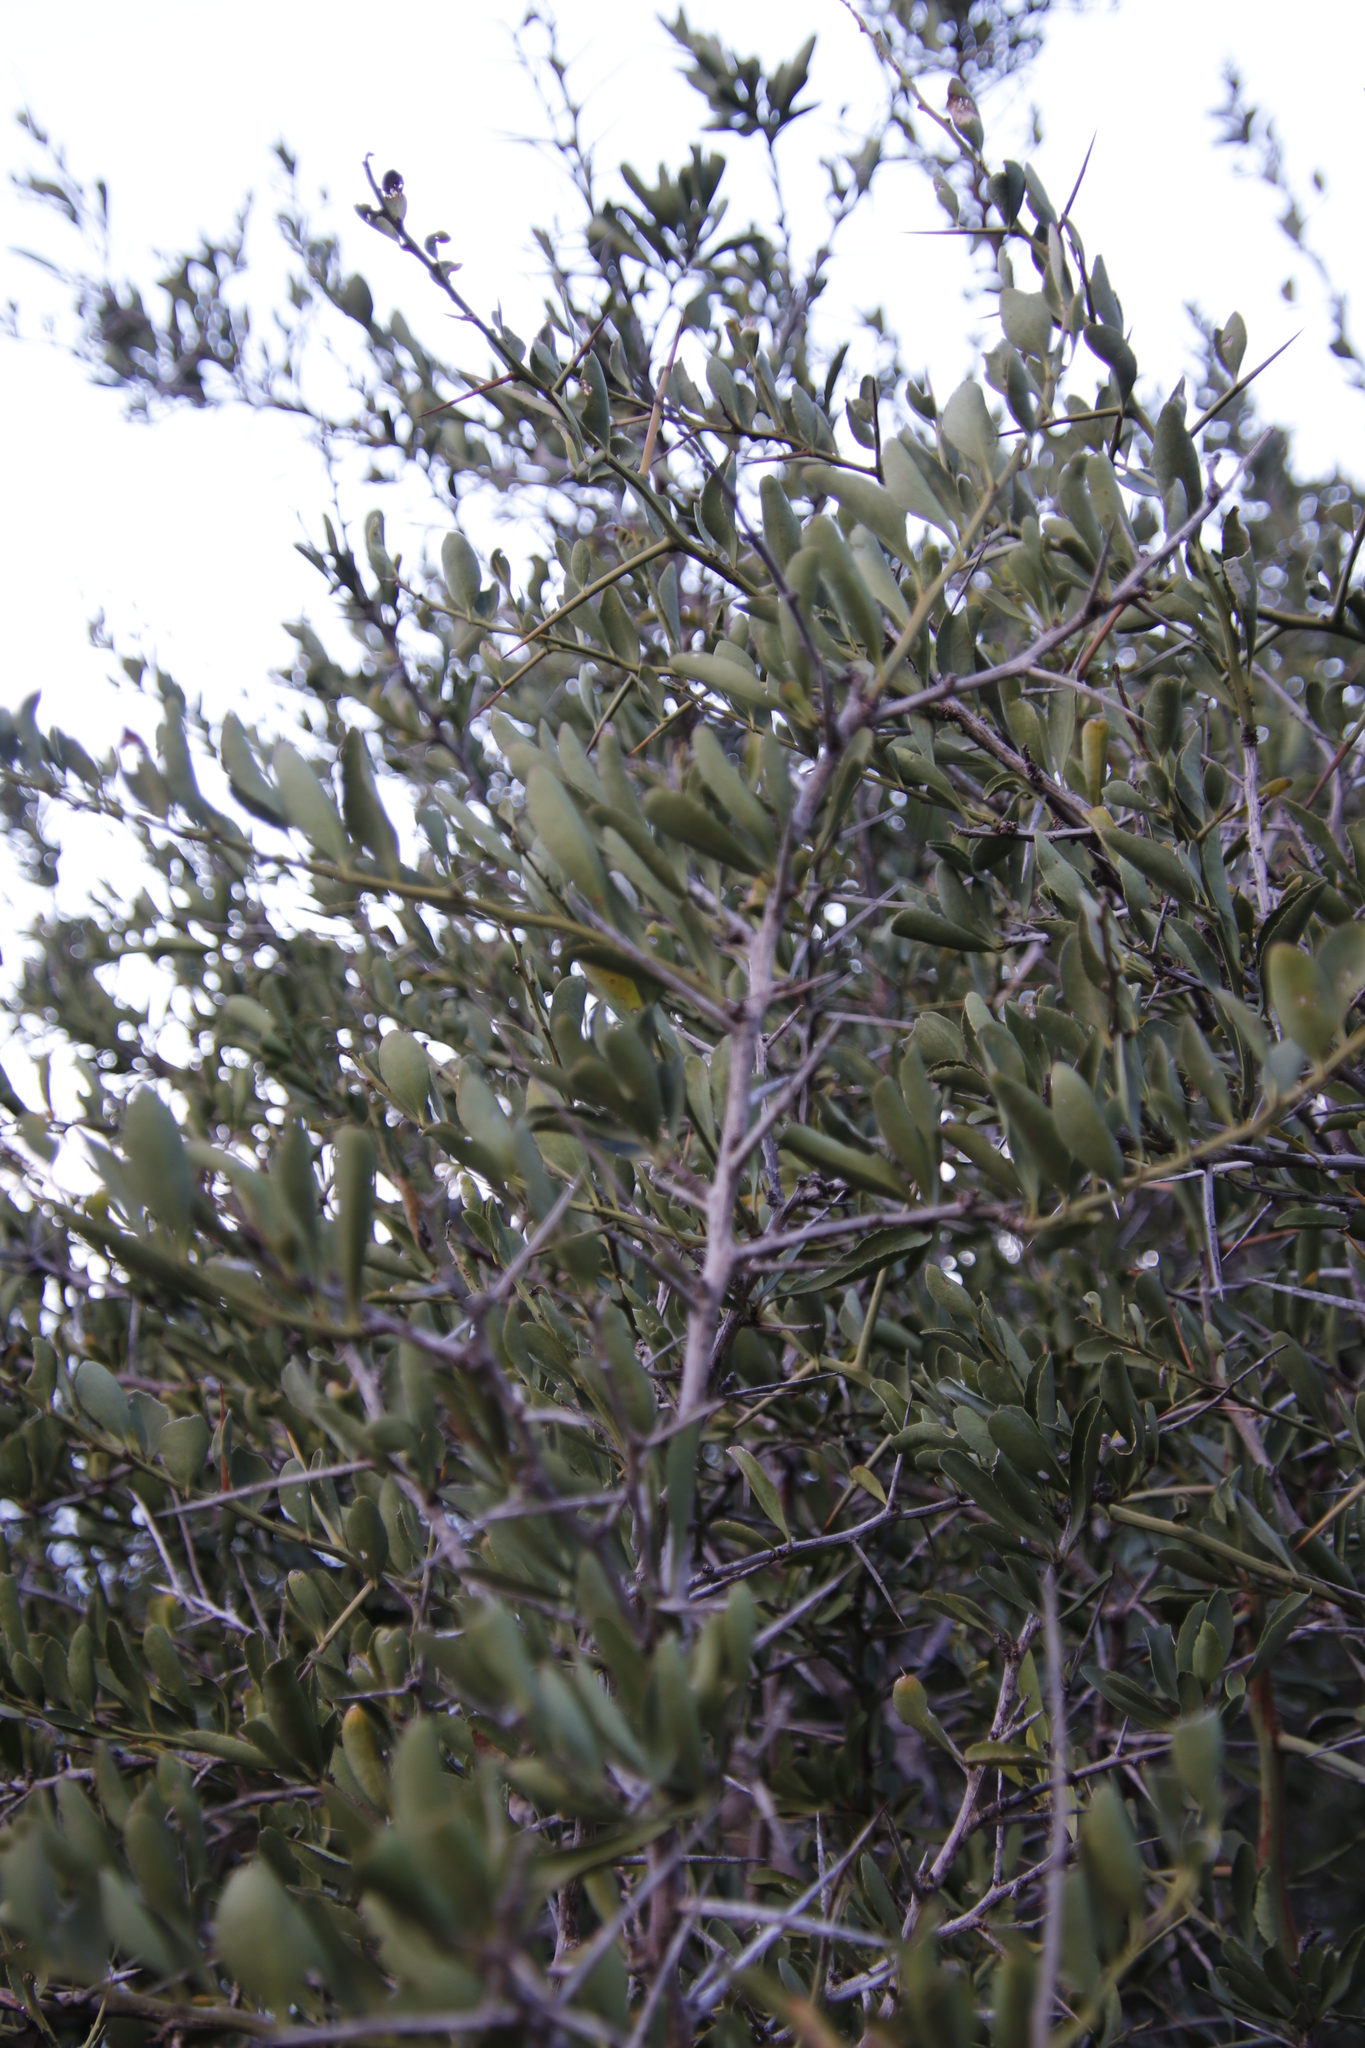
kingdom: Plantae
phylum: Tracheophyta
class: Magnoliopsida
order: Celastrales
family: Celastraceae
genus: Gymnosporia
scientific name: Gymnosporia buxifolia
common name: Common spike-thorn
